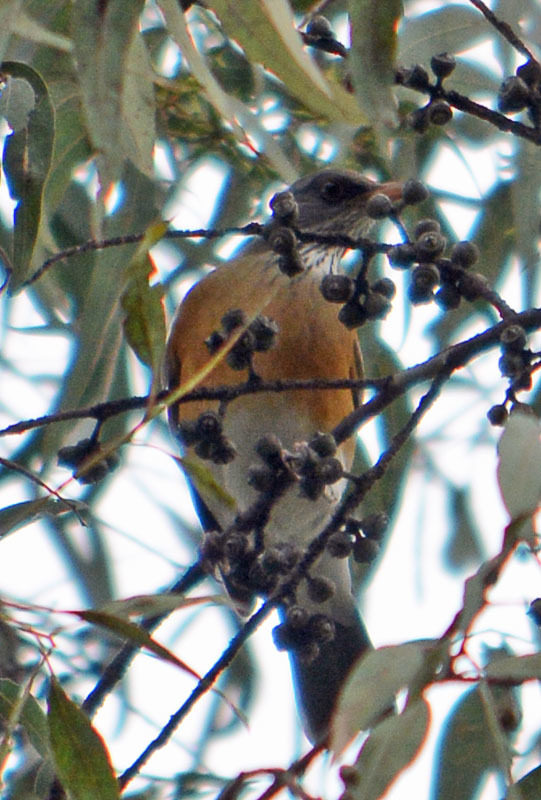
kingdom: Animalia
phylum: Chordata
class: Aves
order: Passeriformes
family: Turdidae
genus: Turdus
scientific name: Turdus rufopalliatus
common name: Rufous-backed robin
